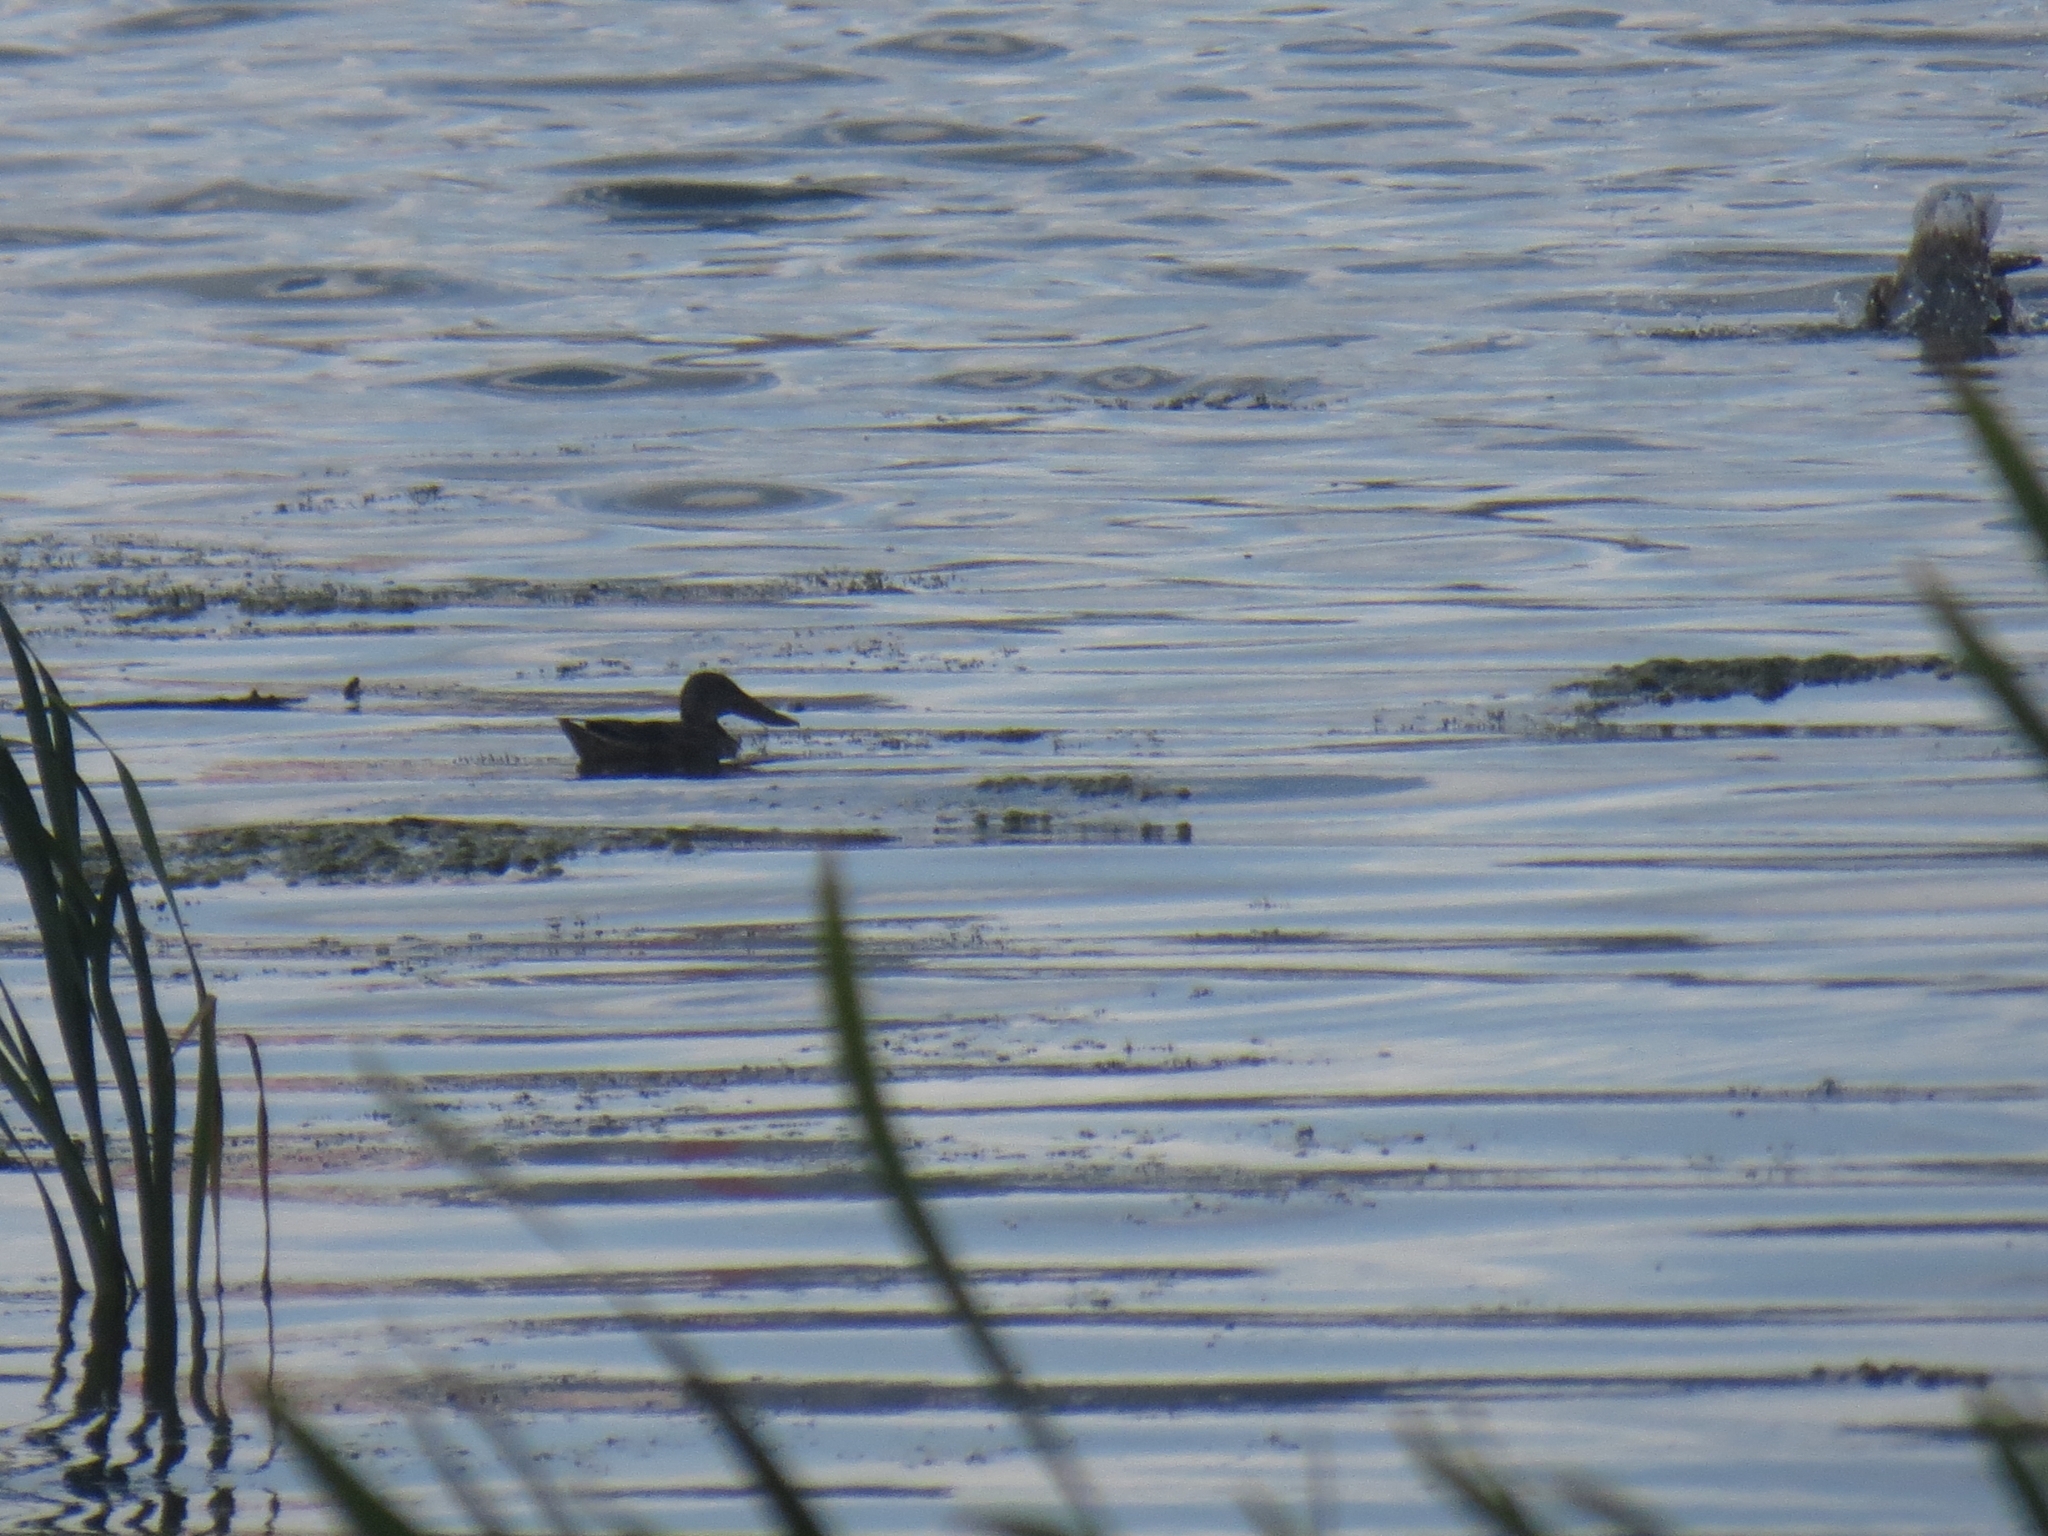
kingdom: Animalia
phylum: Chordata
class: Aves
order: Anseriformes
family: Anatidae
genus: Spatula
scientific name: Spatula clypeata
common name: Northern shoveler
